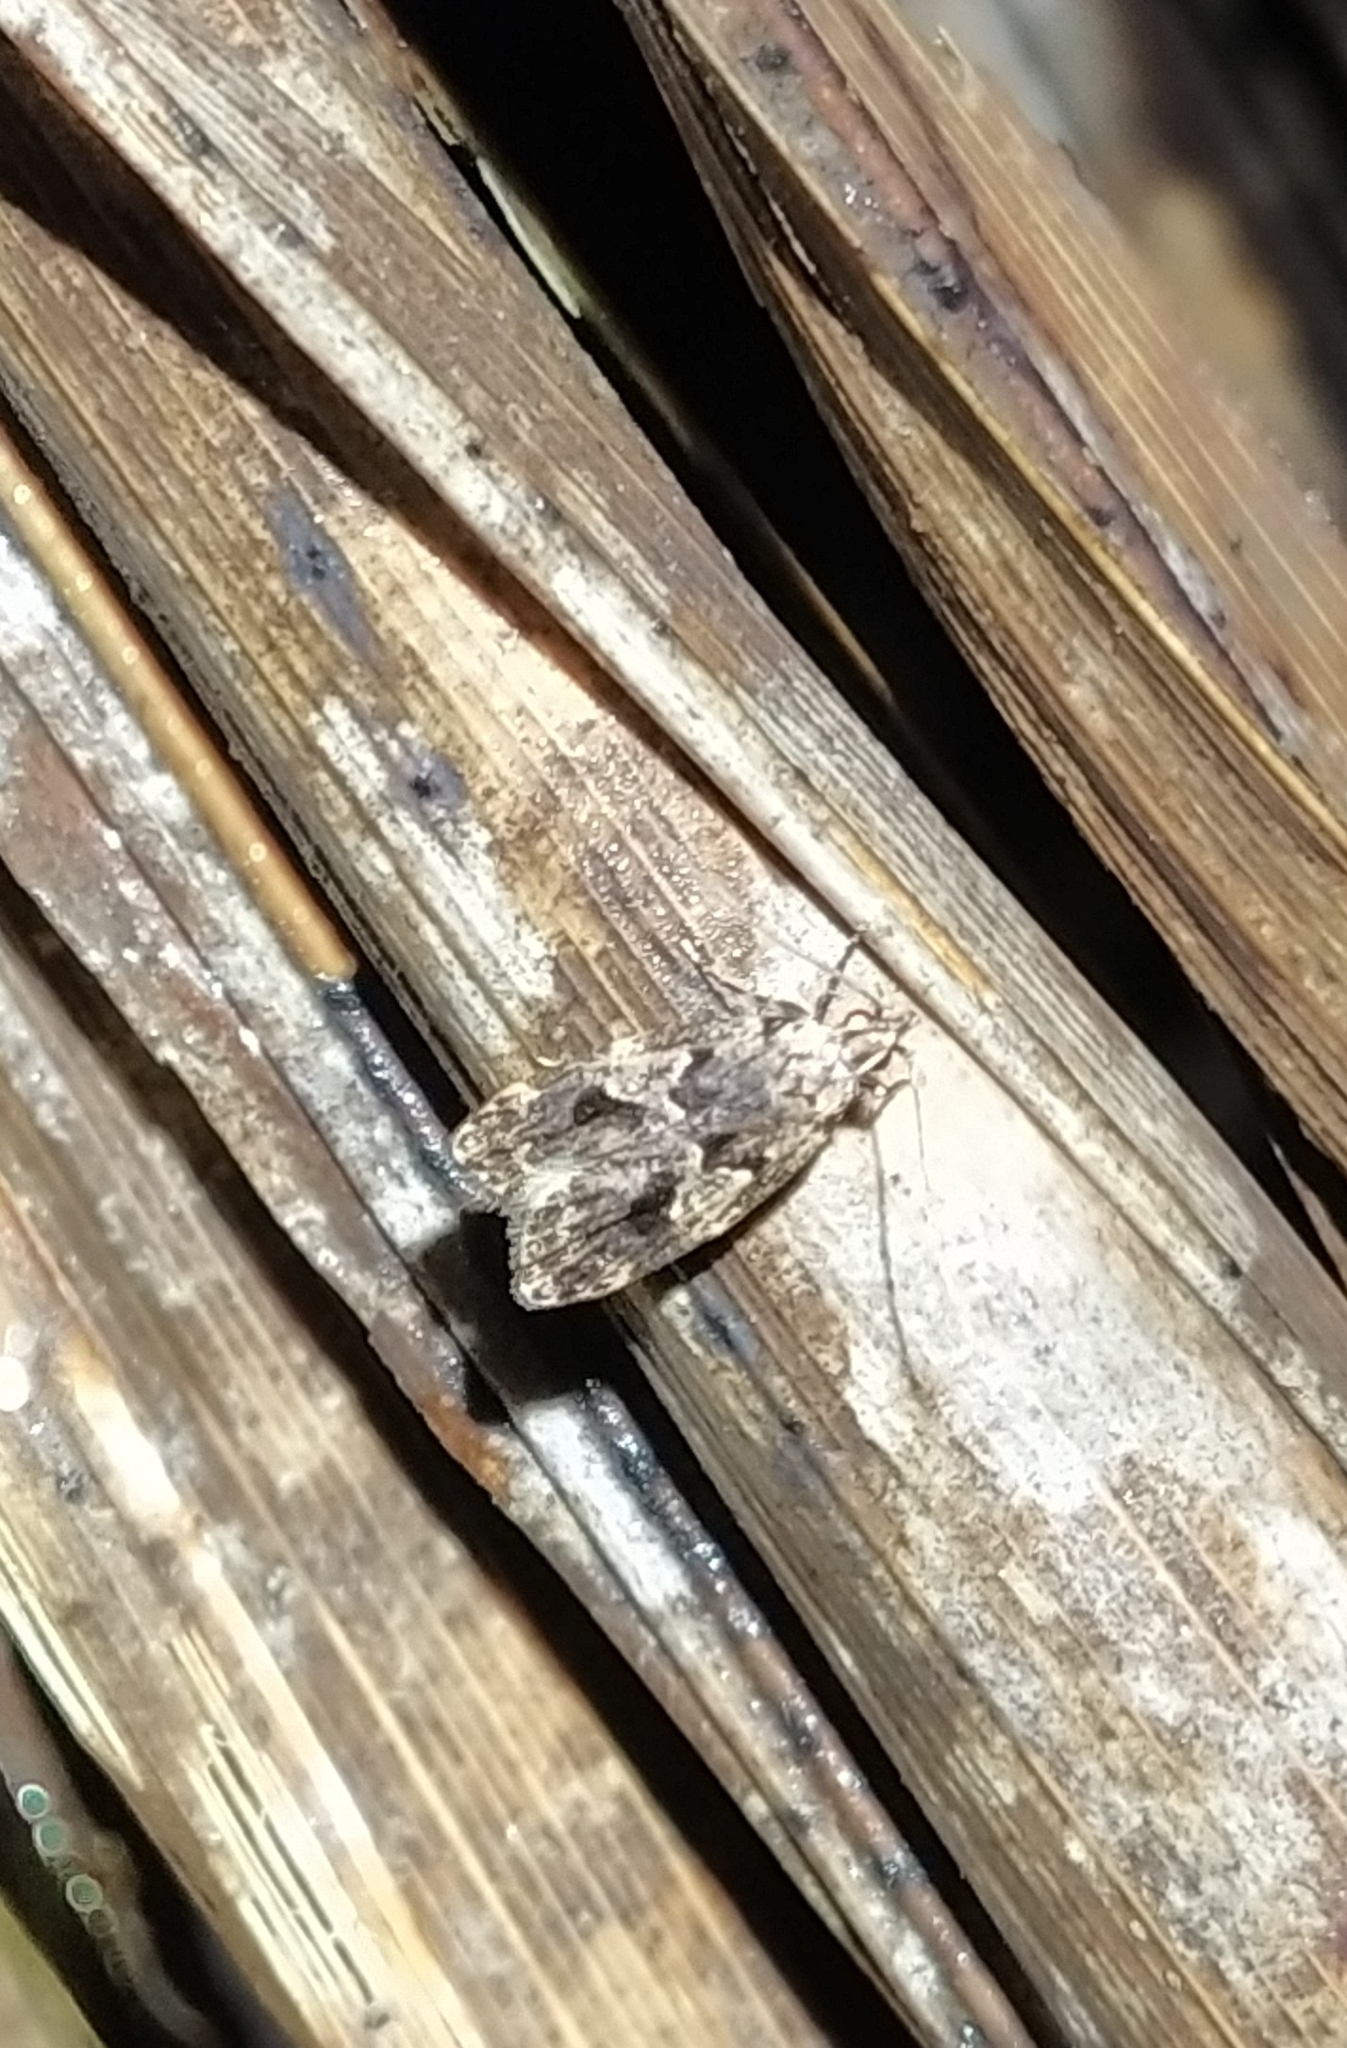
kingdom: Animalia
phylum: Arthropoda
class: Insecta
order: Lepidoptera
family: Oecophoridae
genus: Gymnobathra
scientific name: Gymnobathra dinocosma
